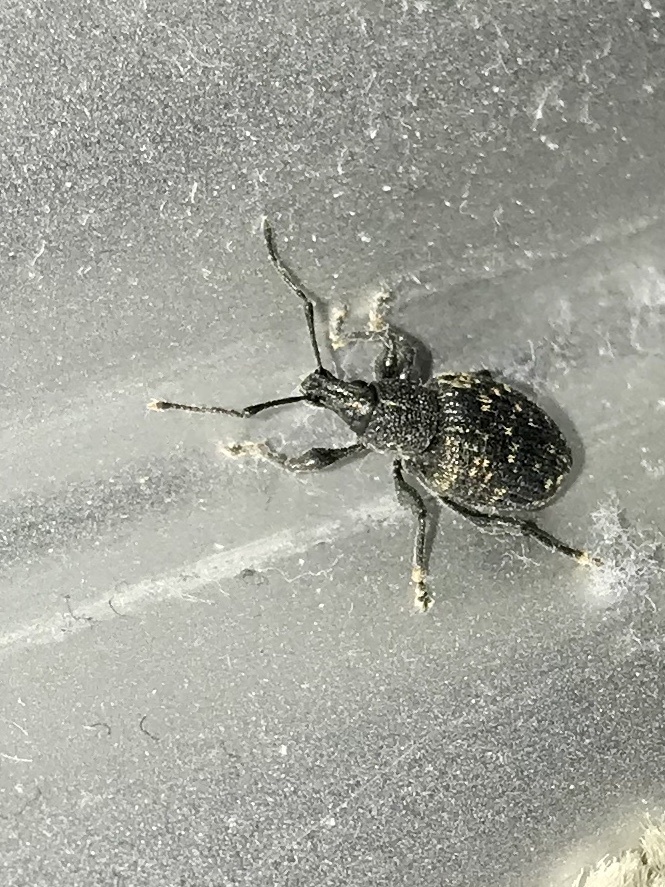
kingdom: Animalia
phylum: Arthropoda
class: Insecta
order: Coleoptera
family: Curculionidae
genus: Otiorhynchus
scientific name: Otiorhynchus sulcatus
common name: Black vine weevil
